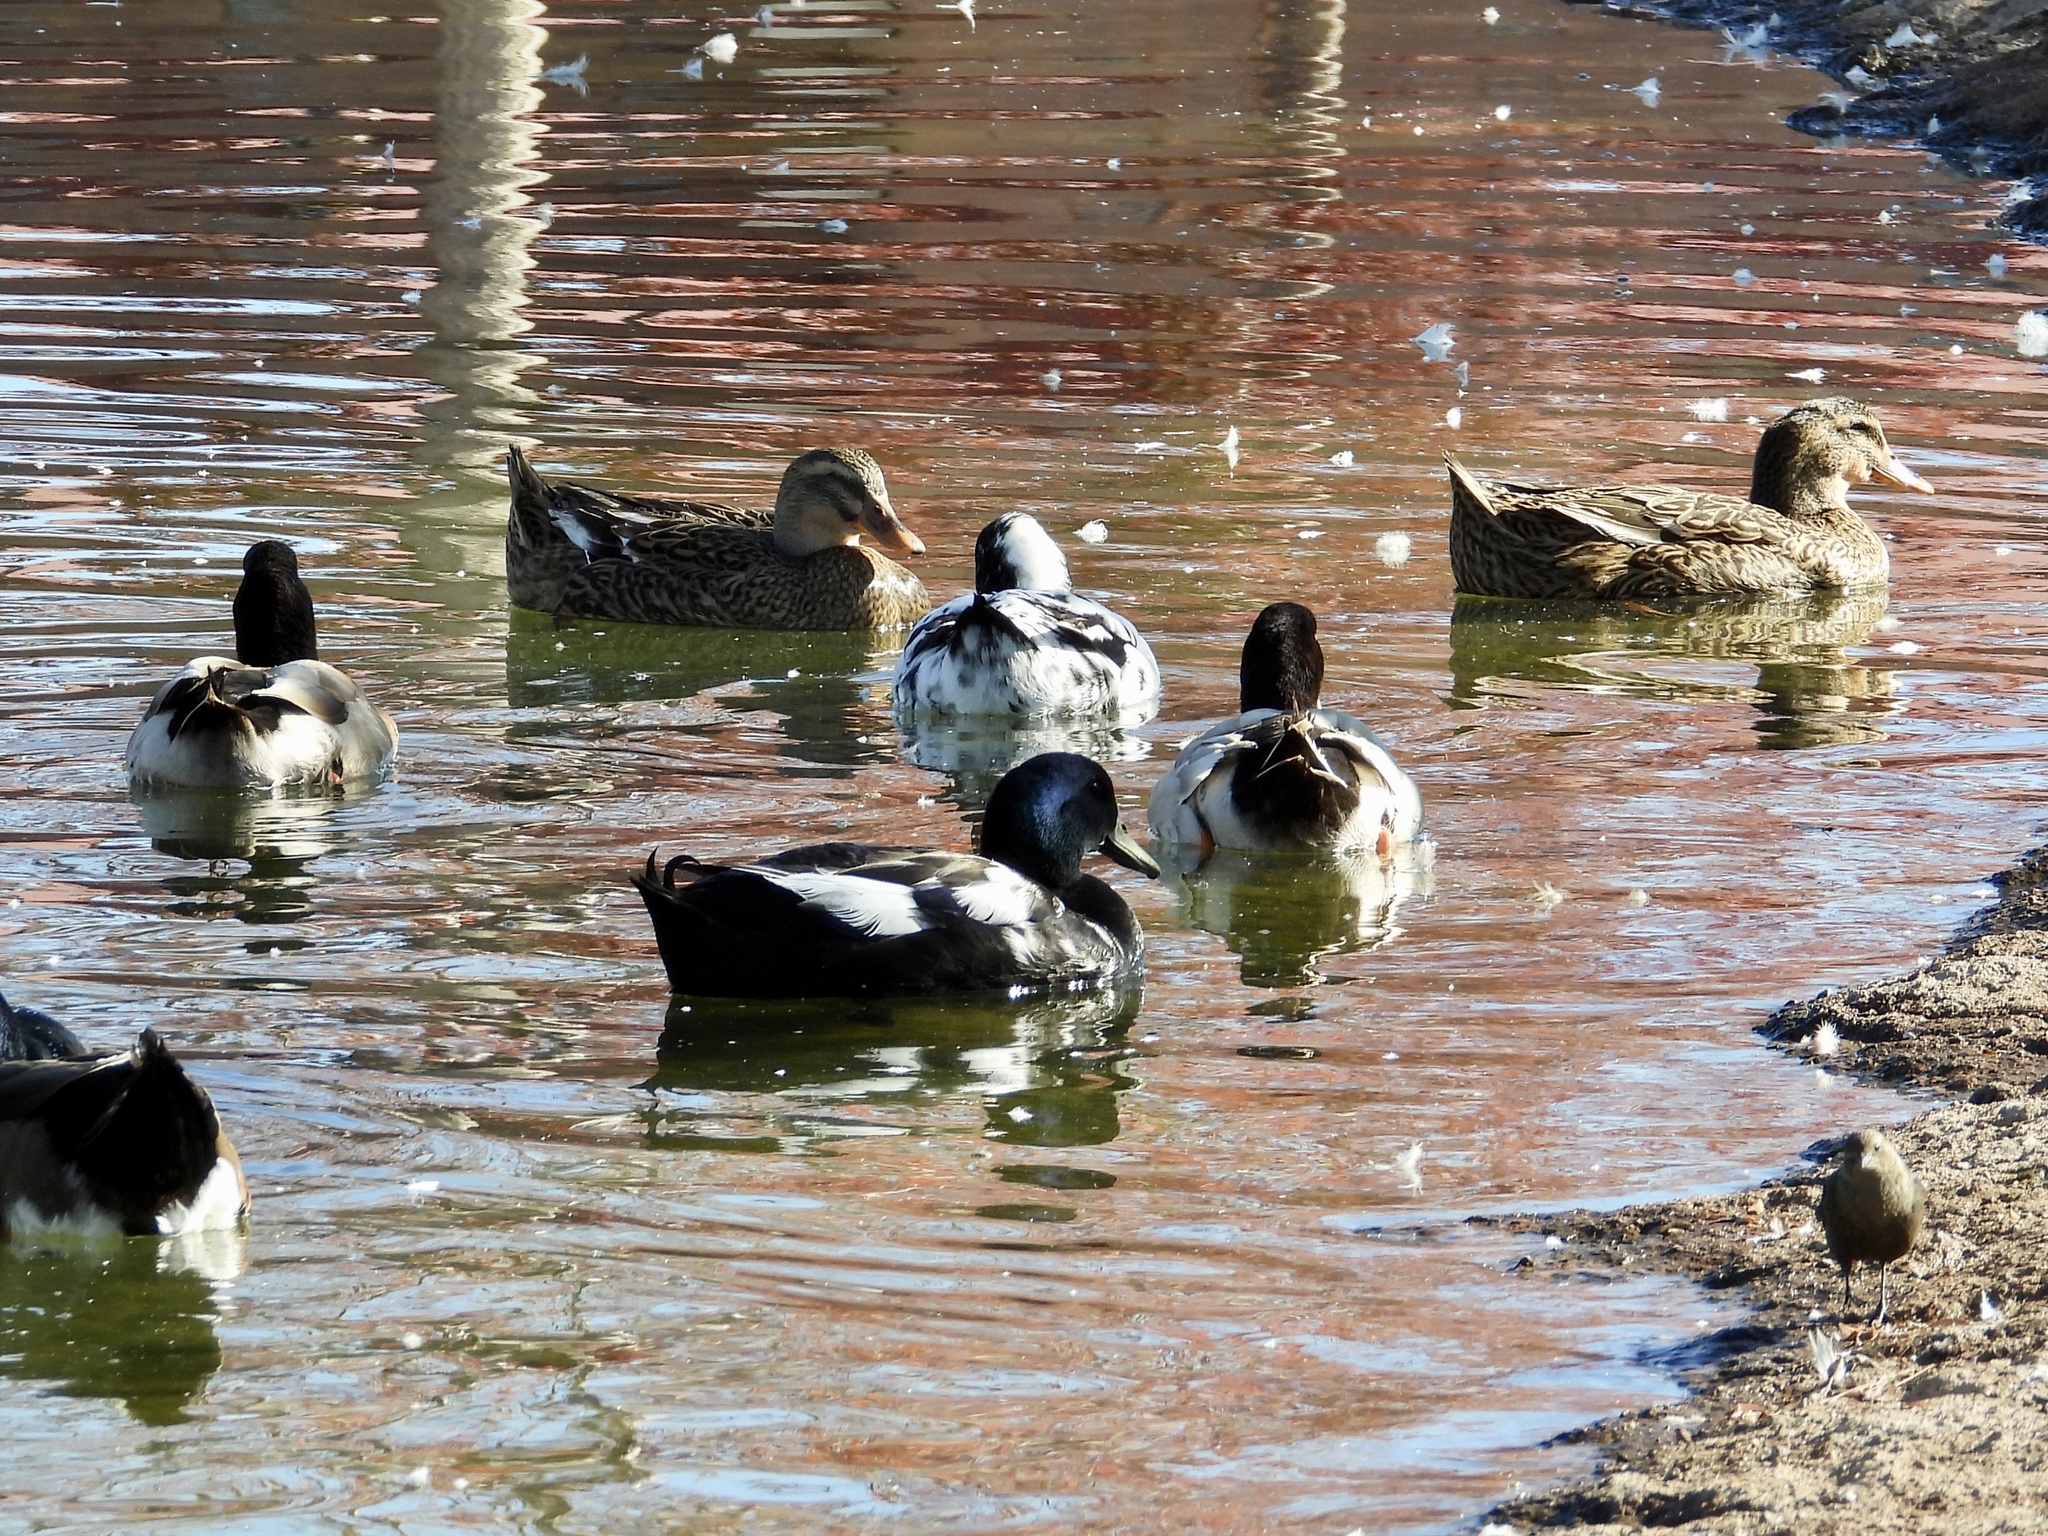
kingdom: Animalia
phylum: Chordata
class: Aves
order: Anseriformes
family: Anatidae
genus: Anas
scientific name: Anas platyrhynchos
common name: Mallard
